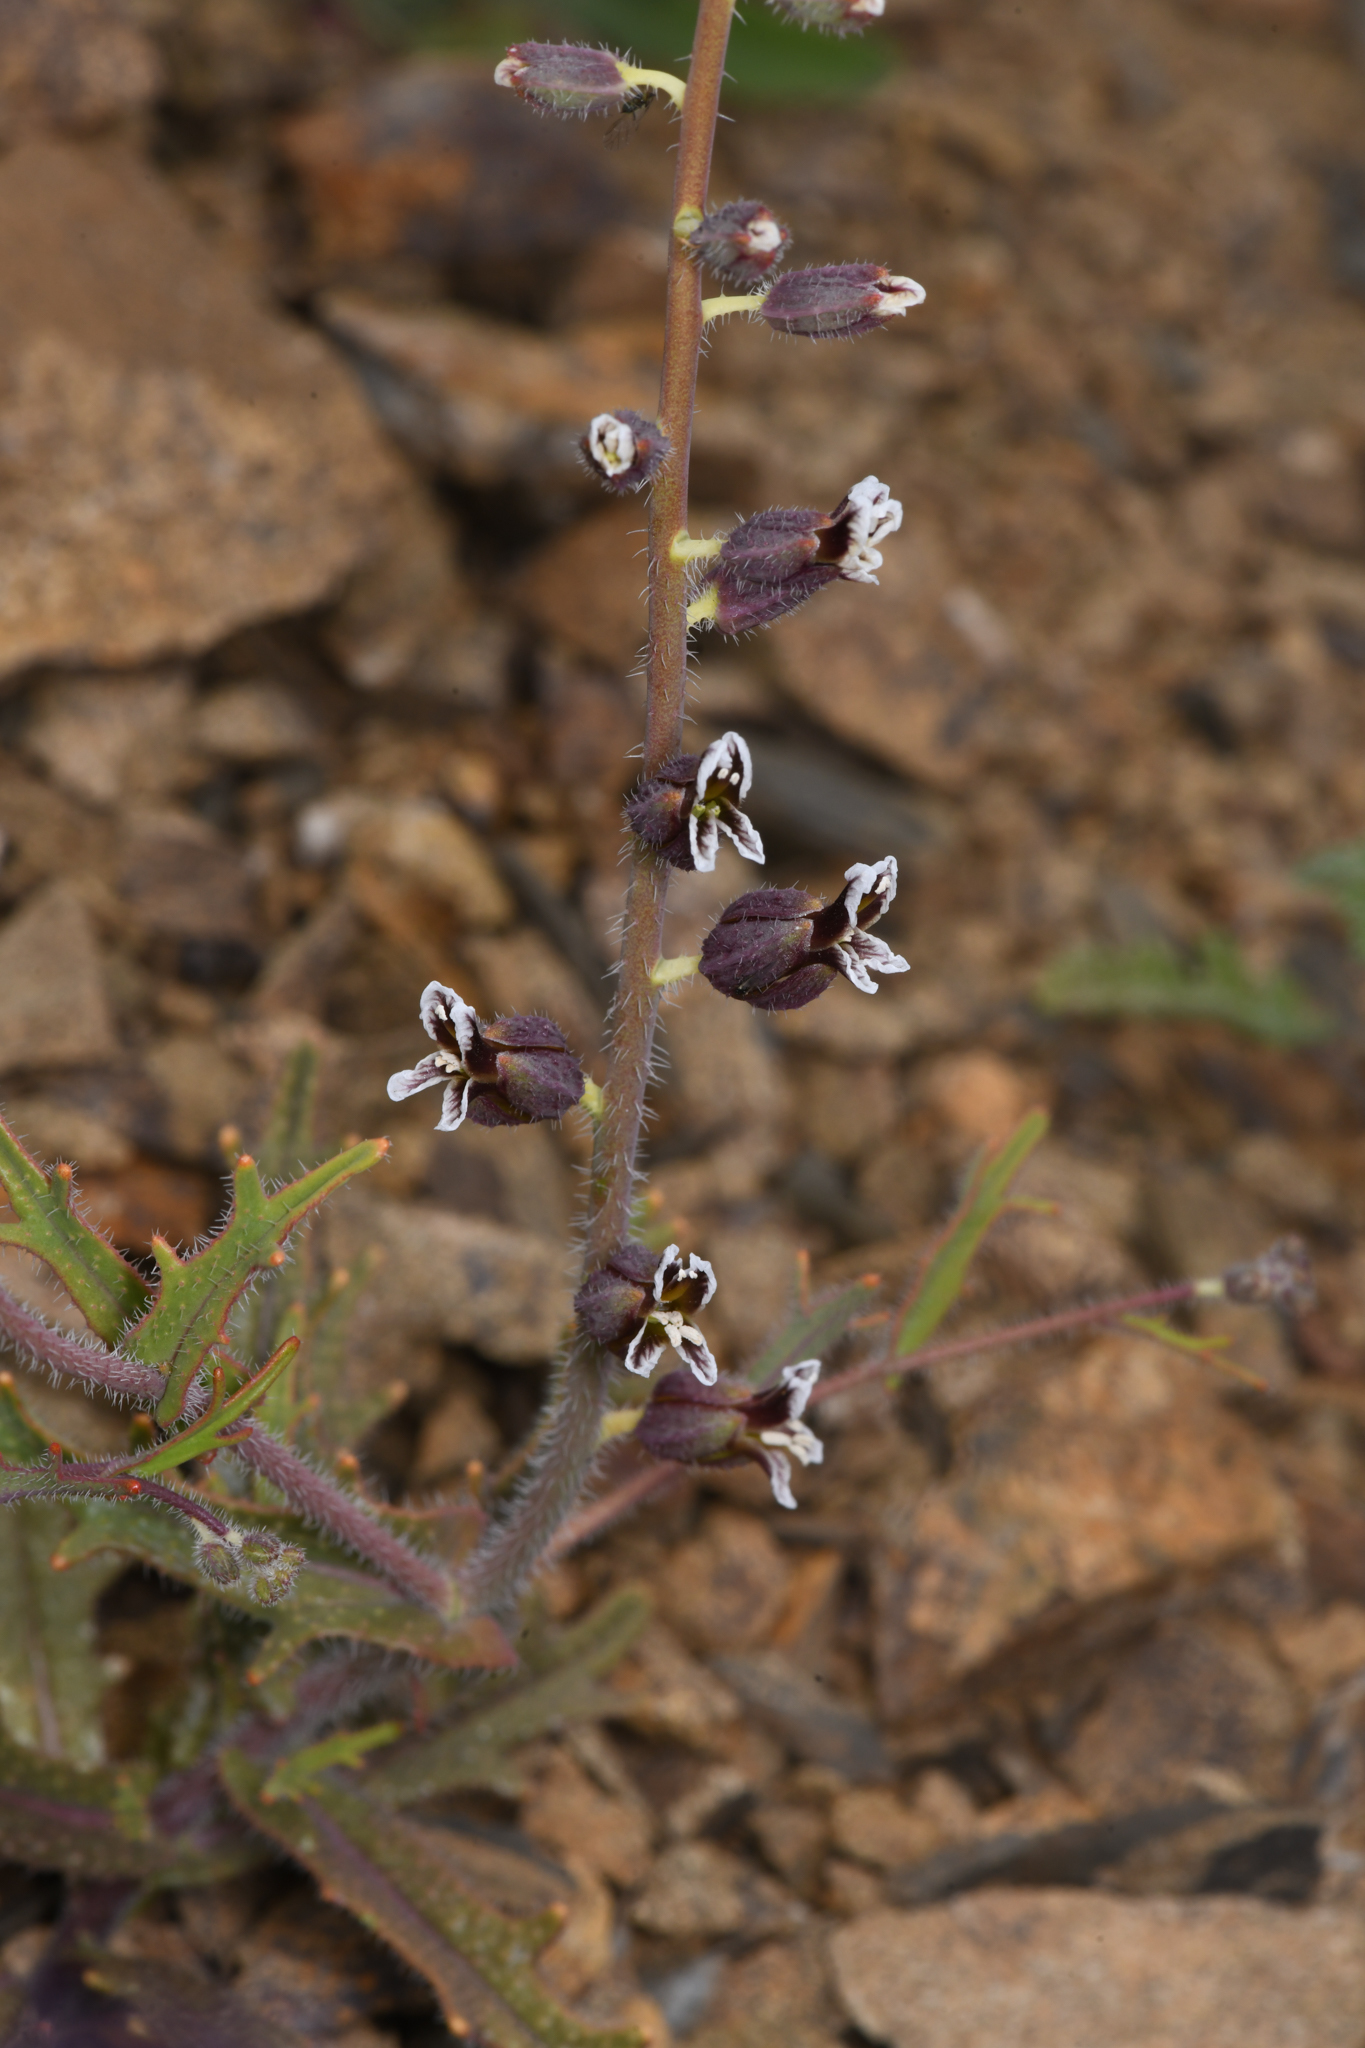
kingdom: Plantae
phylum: Tracheophyta
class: Magnoliopsida
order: Brassicales
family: Brassicaceae
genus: Streptanthus
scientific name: Streptanthus insignis
